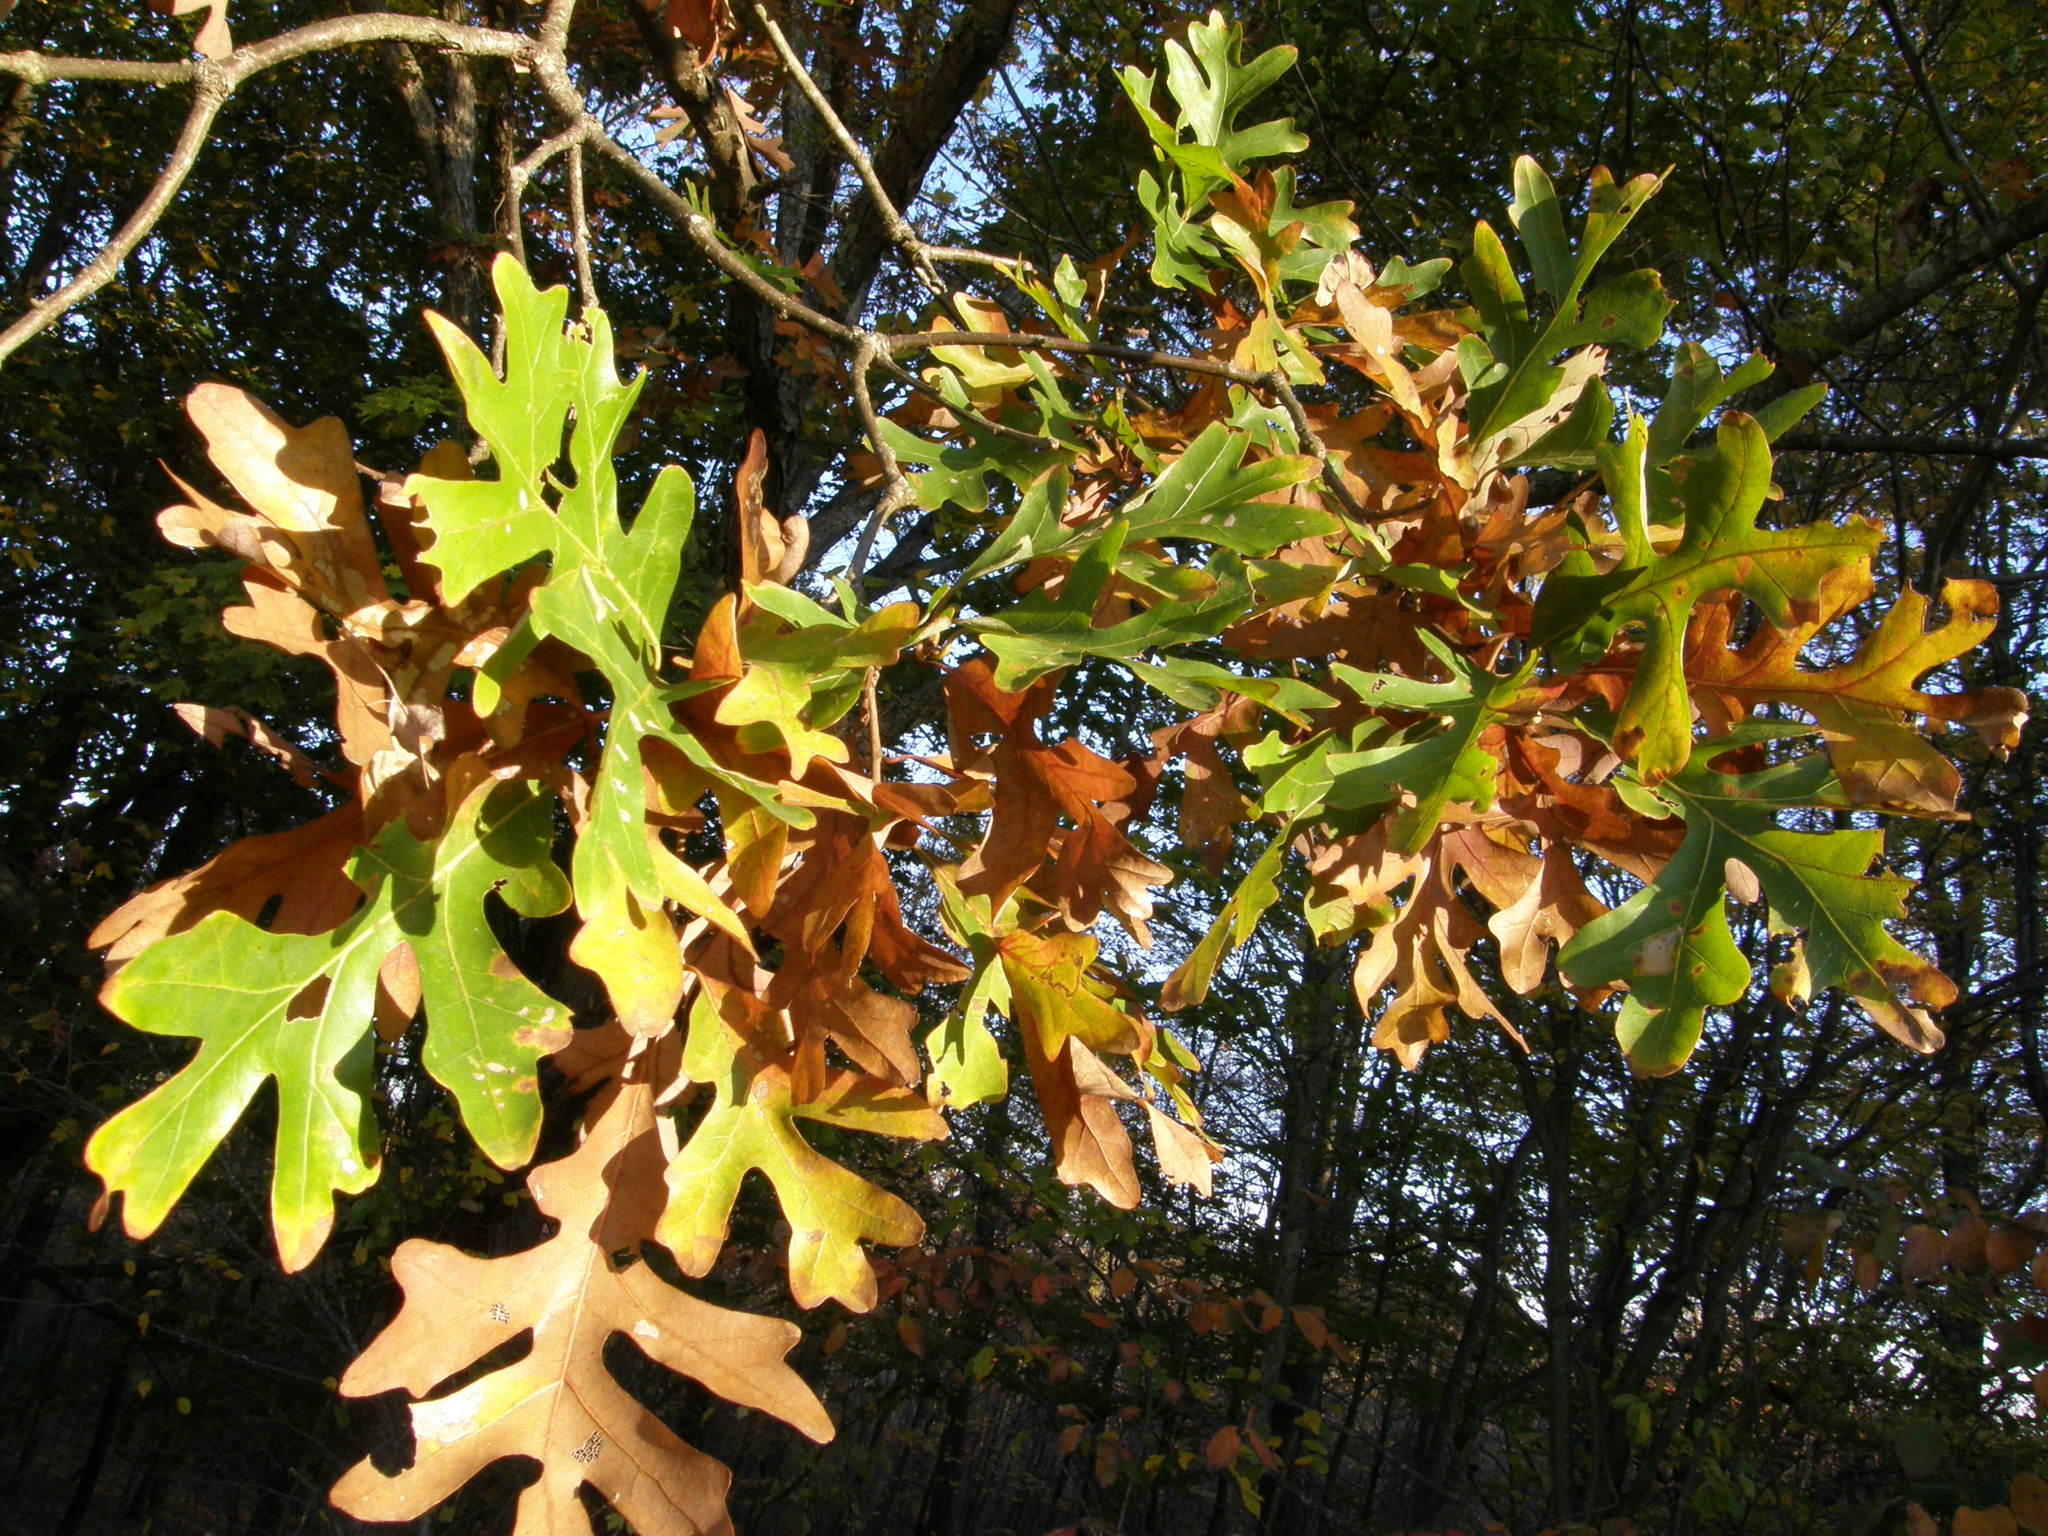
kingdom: Plantae
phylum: Tracheophyta
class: Magnoliopsida
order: Fagales
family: Fagaceae
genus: Quercus
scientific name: Quercus alba
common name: White oak
